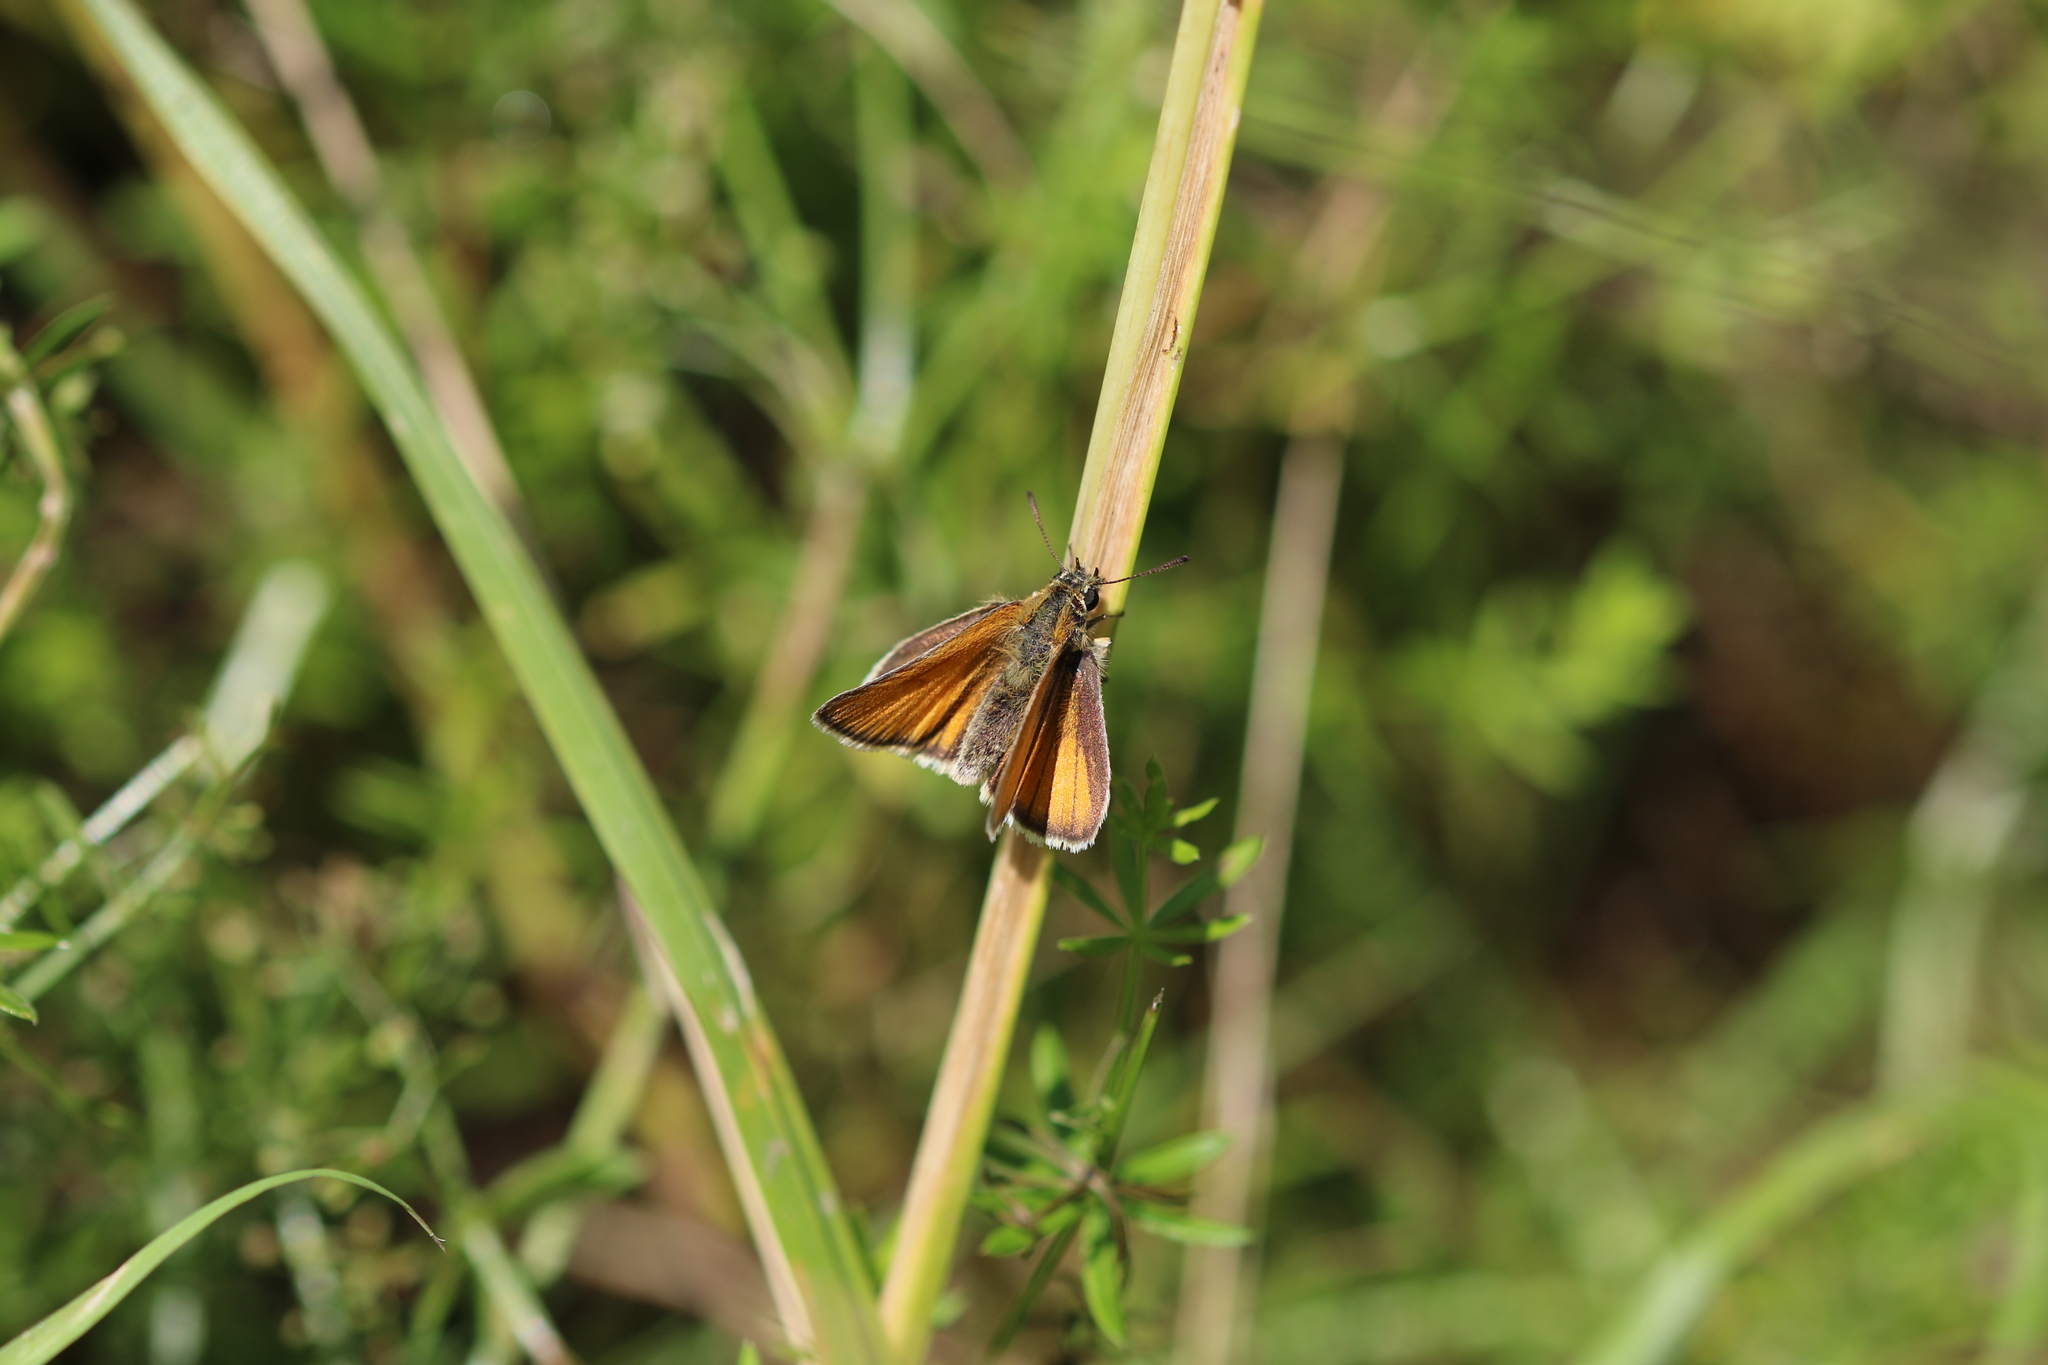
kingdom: Animalia
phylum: Arthropoda
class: Insecta
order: Lepidoptera
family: Hesperiidae
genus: Thymelicus
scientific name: Thymelicus lineola
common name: Essex skipper
